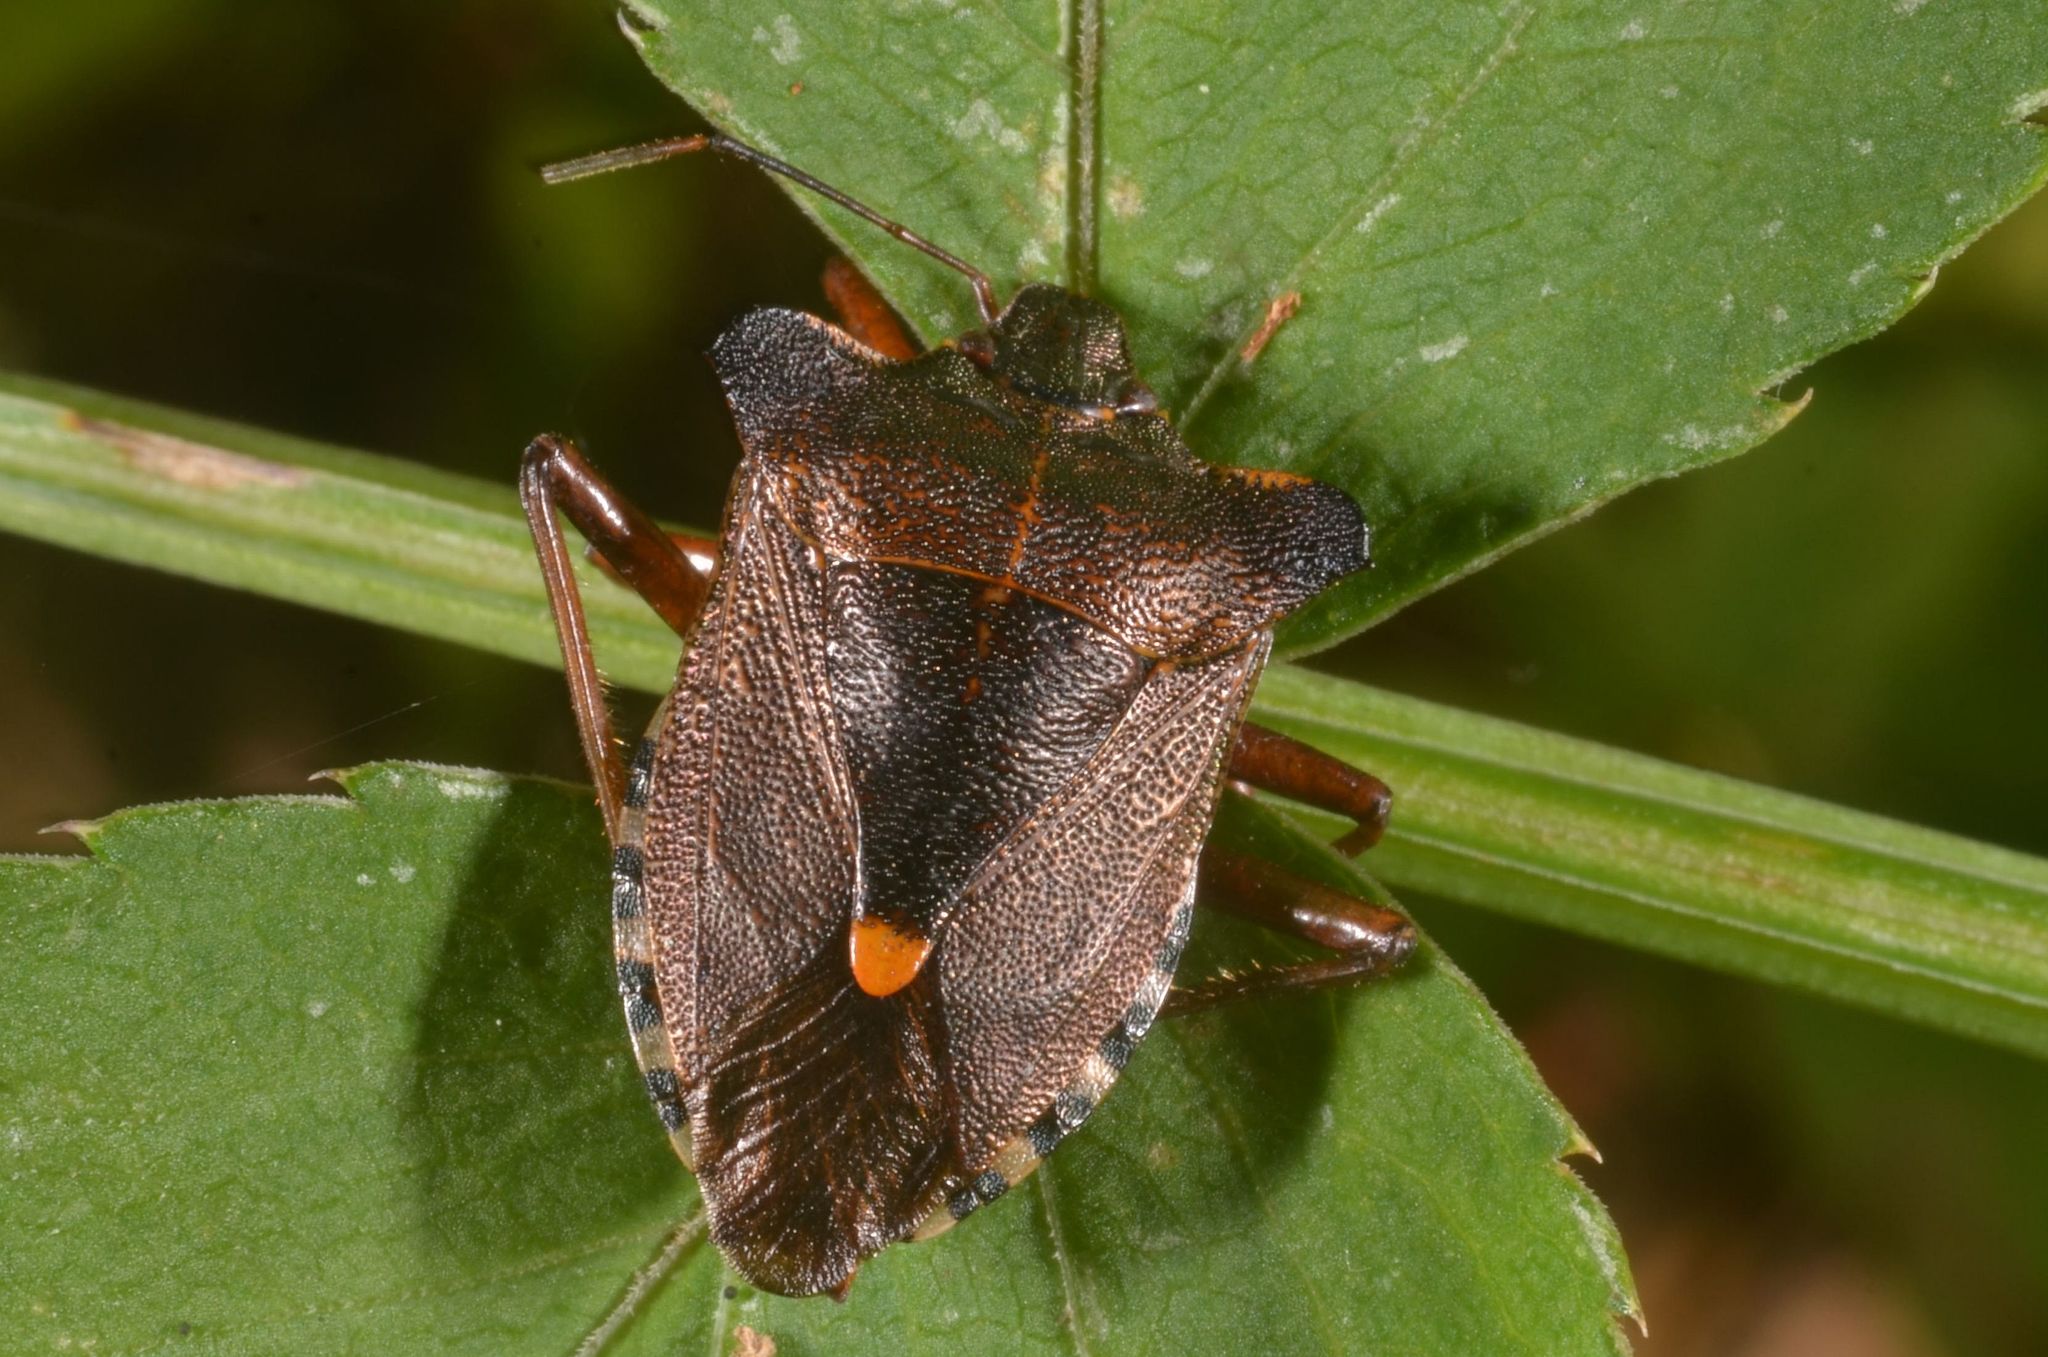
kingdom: Animalia
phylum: Arthropoda
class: Insecta
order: Hemiptera
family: Pentatomidae
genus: Pentatoma
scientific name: Pentatoma rufipes
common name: Forest bug
